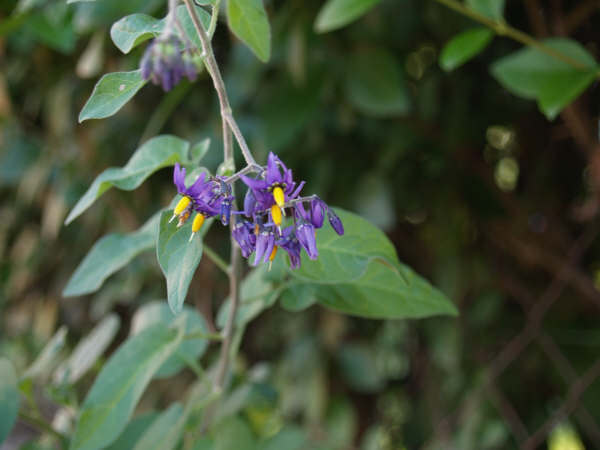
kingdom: Plantae
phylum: Tracheophyta
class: Magnoliopsida
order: Solanales
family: Solanaceae
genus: Solanum
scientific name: Solanum dulcamara
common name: Climbing nightshade
